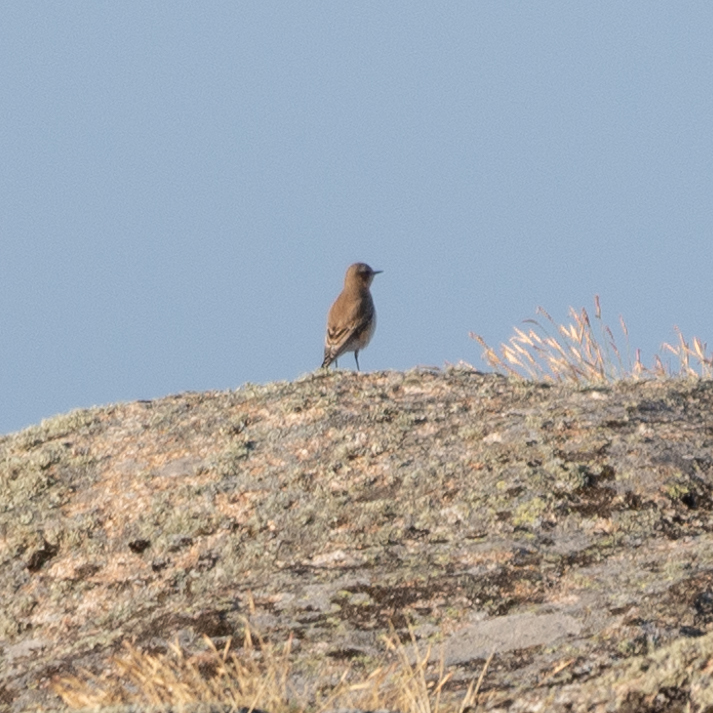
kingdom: Animalia
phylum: Chordata
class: Aves
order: Passeriformes
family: Muscicapidae
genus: Oenanthe
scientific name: Oenanthe oenanthe
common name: Northern wheatear
